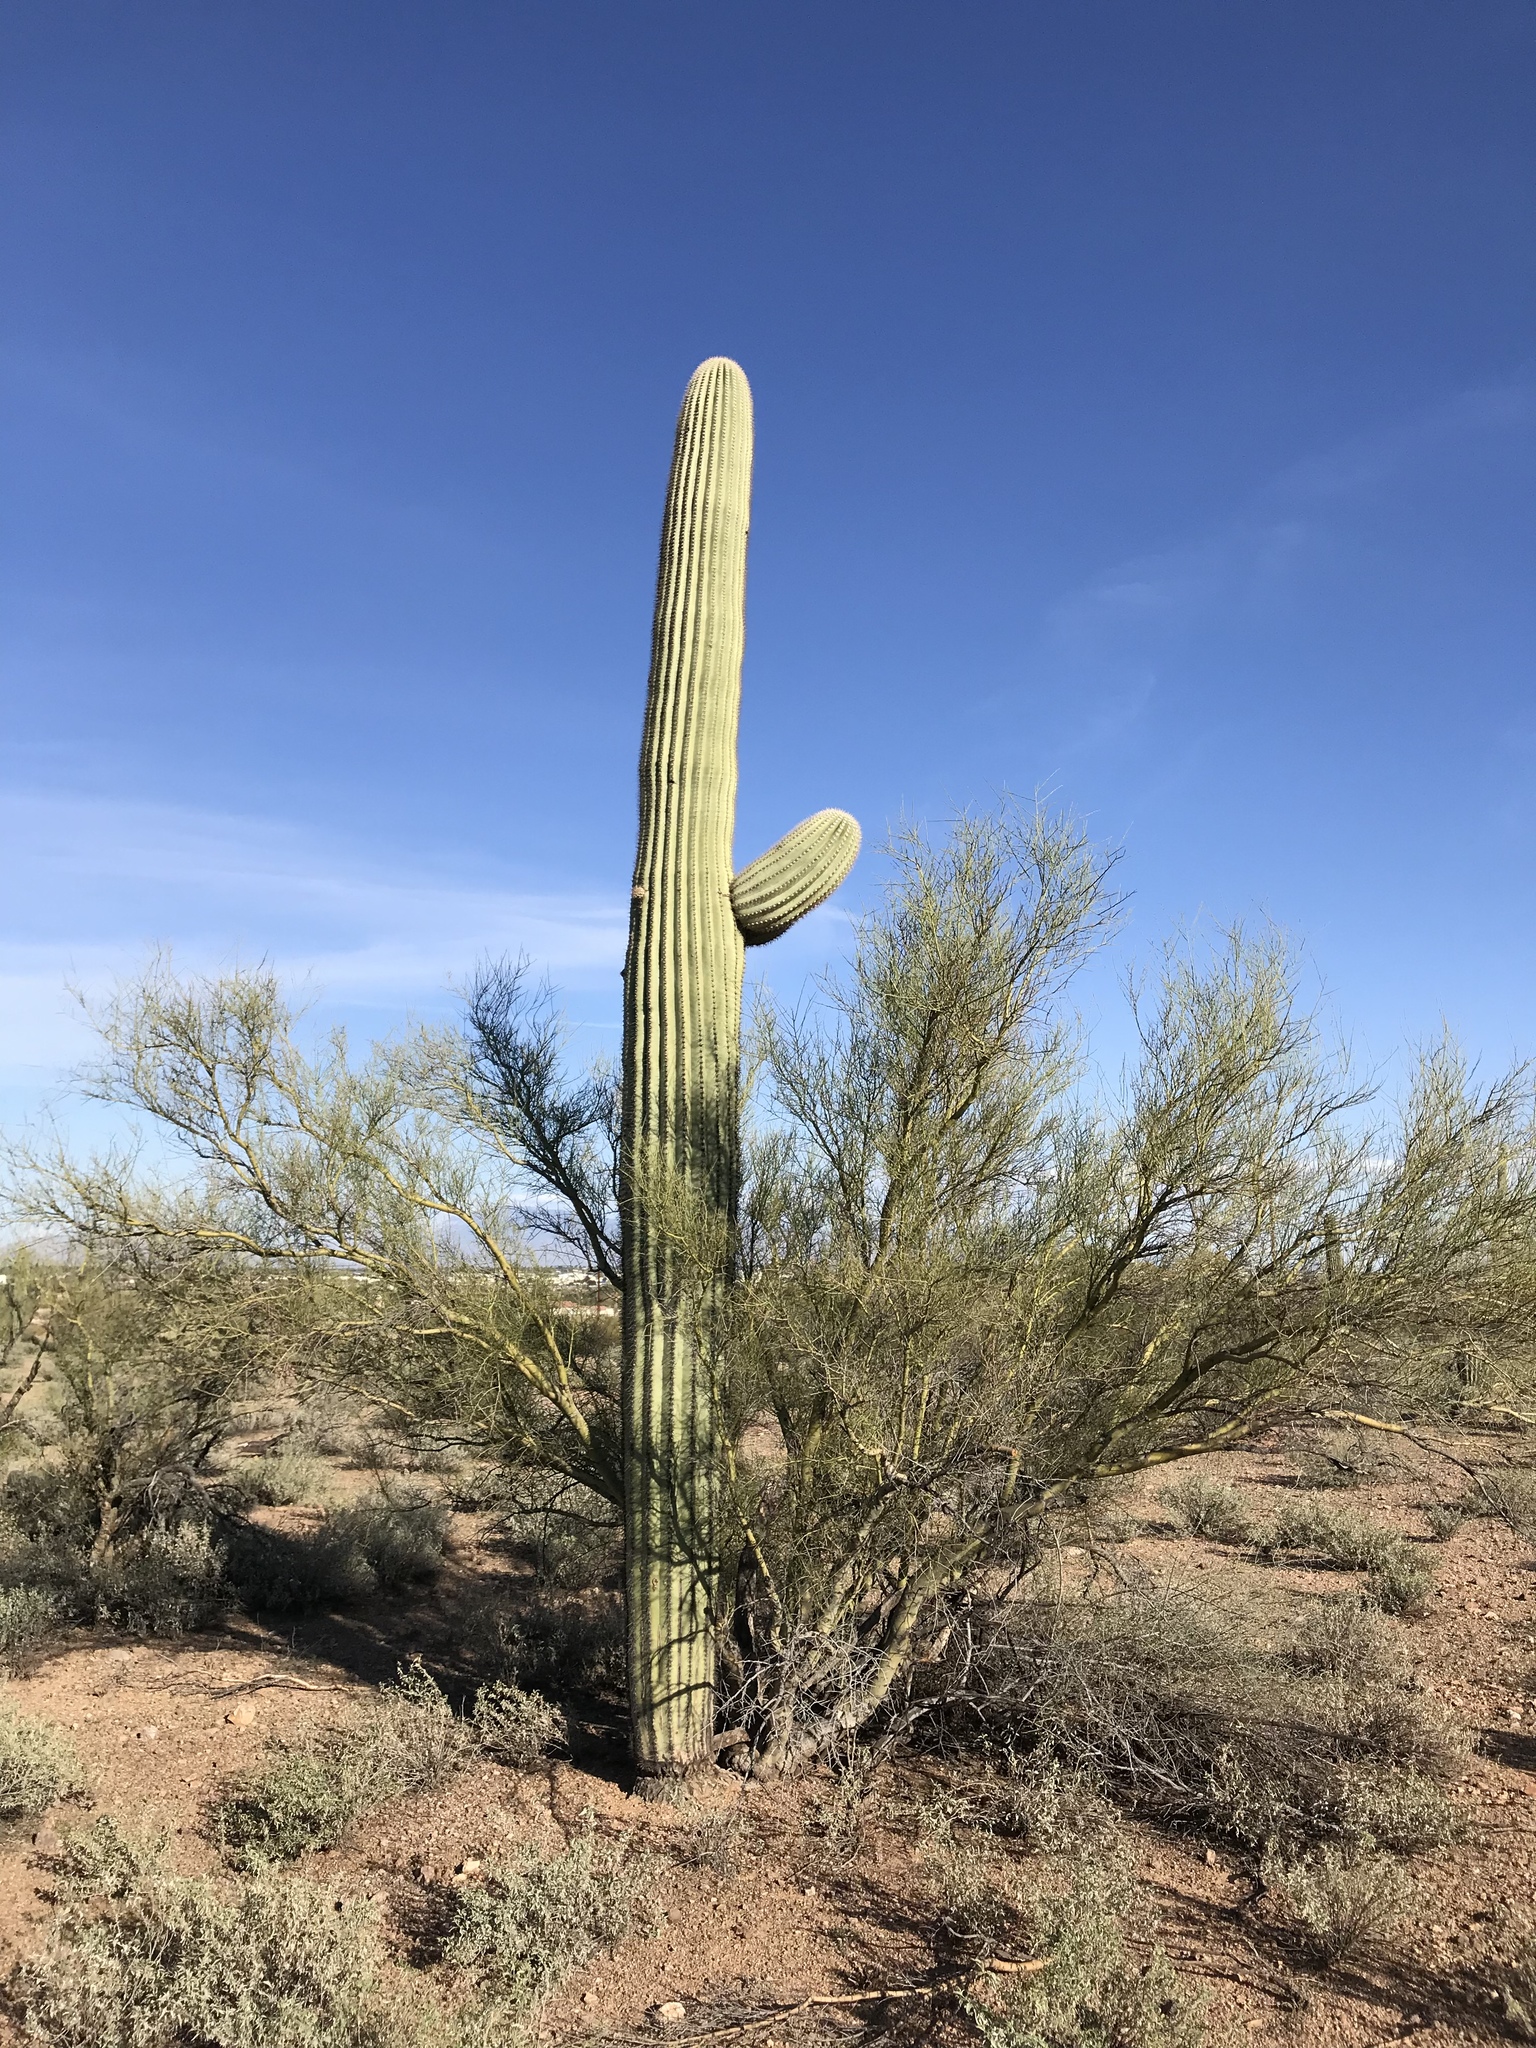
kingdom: Plantae
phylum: Tracheophyta
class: Magnoliopsida
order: Caryophyllales
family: Cactaceae
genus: Carnegiea
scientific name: Carnegiea gigantea
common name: Saguaro
